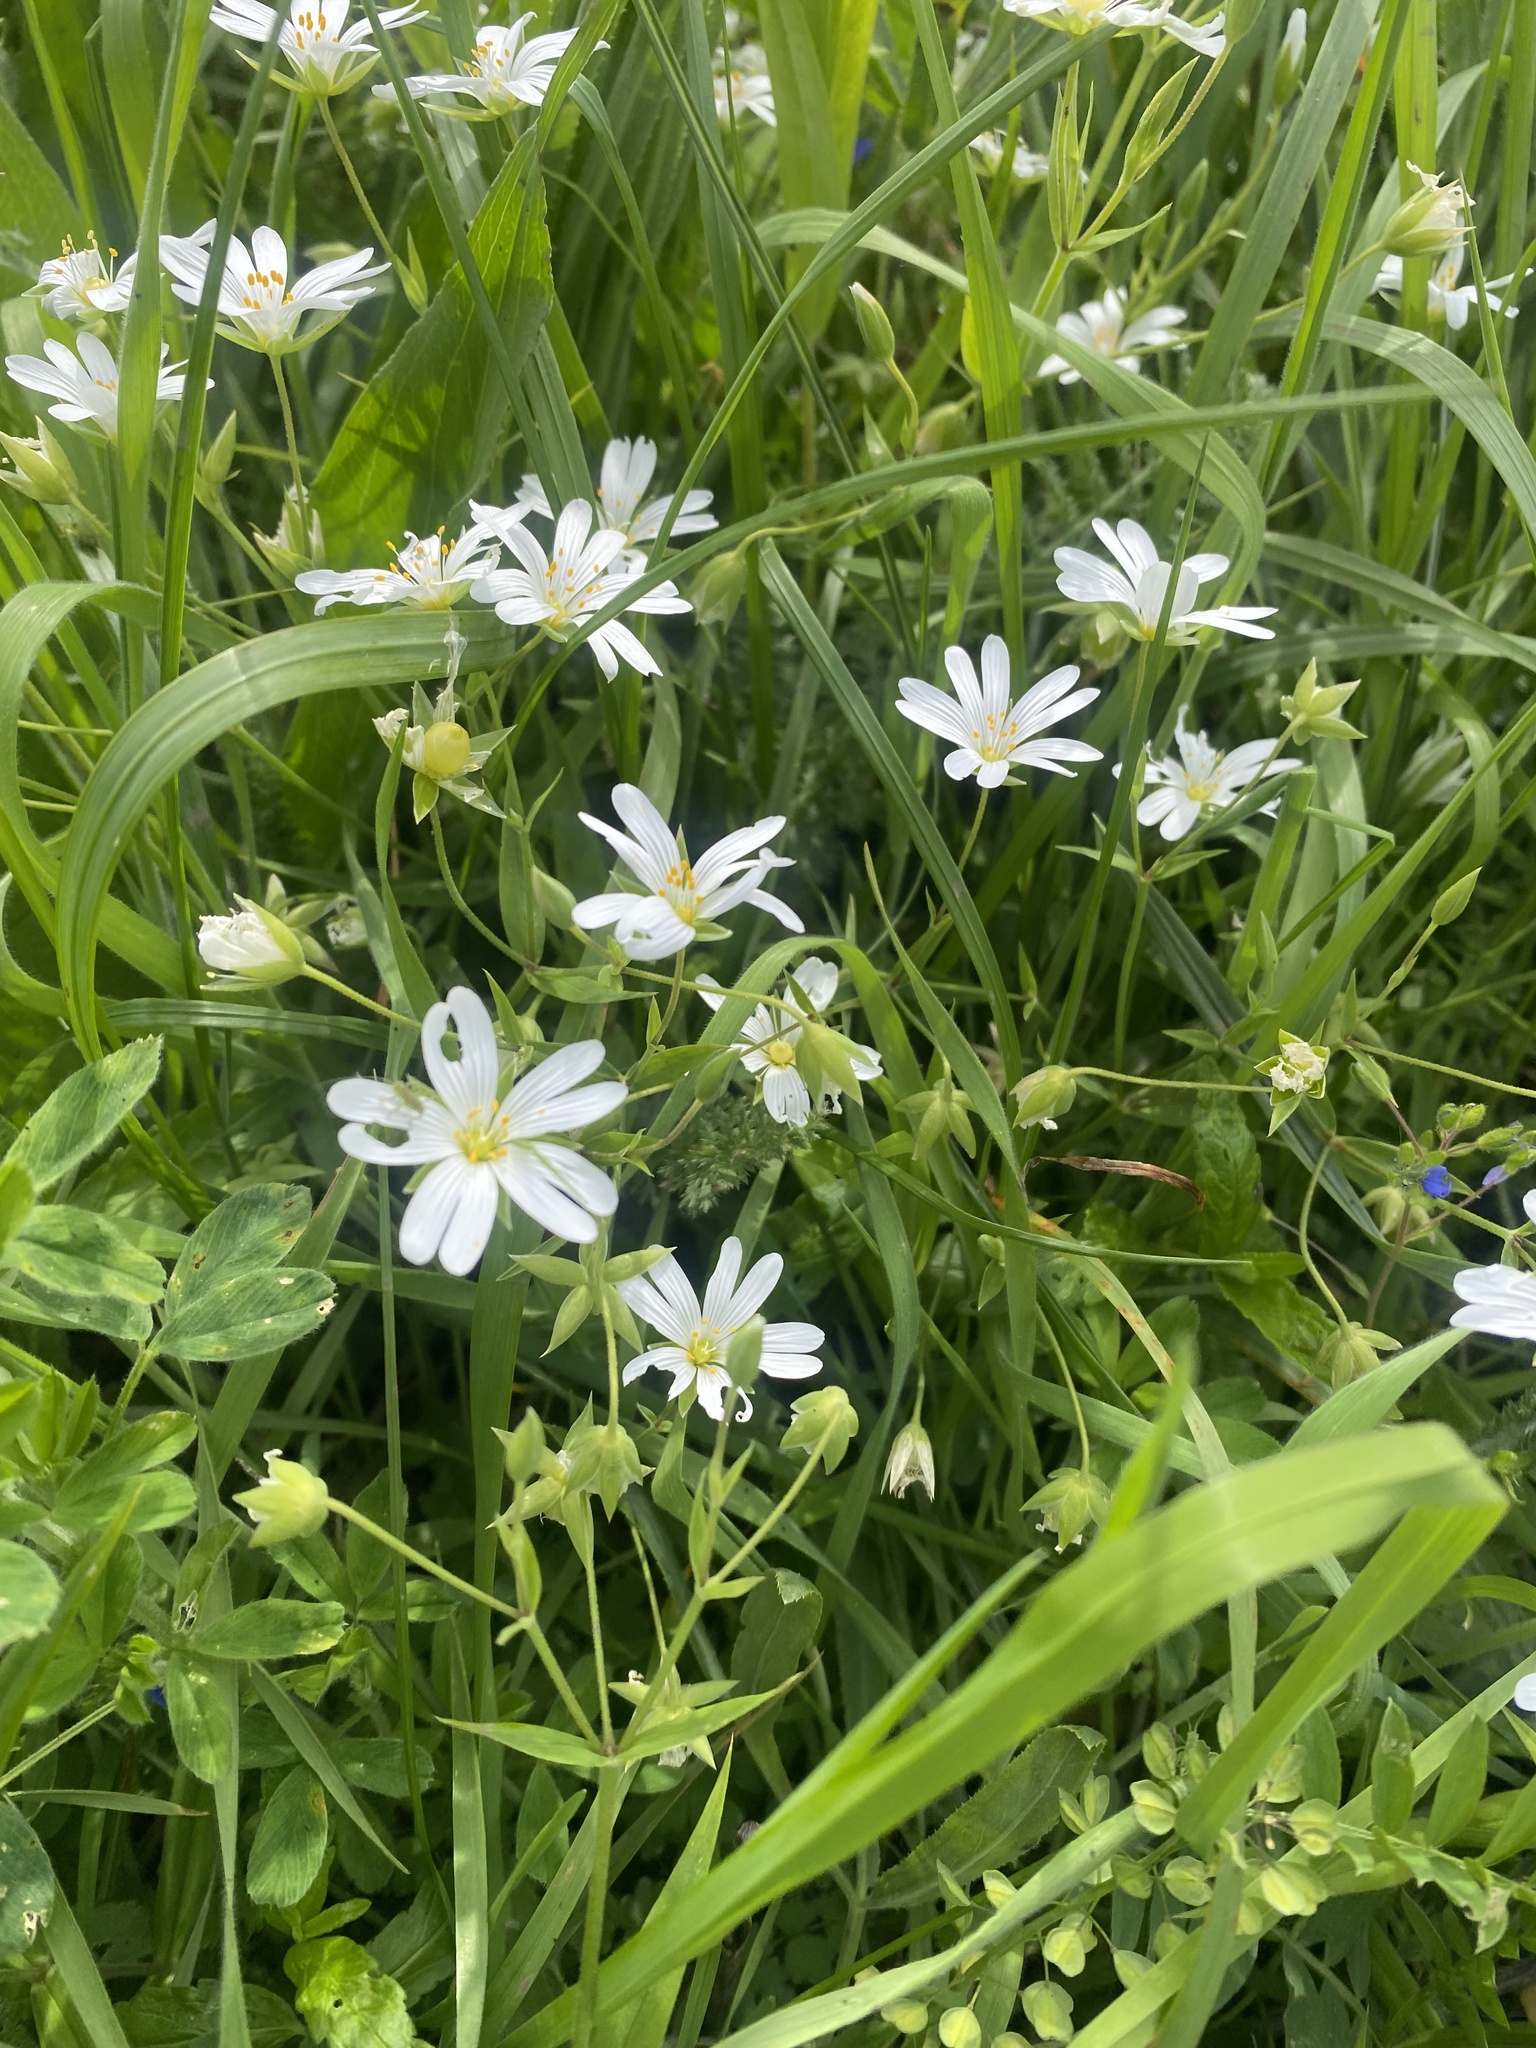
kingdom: Plantae
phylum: Tracheophyta
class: Magnoliopsida
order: Caryophyllales
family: Caryophyllaceae
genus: Rabelera
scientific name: Rabelera holostea
